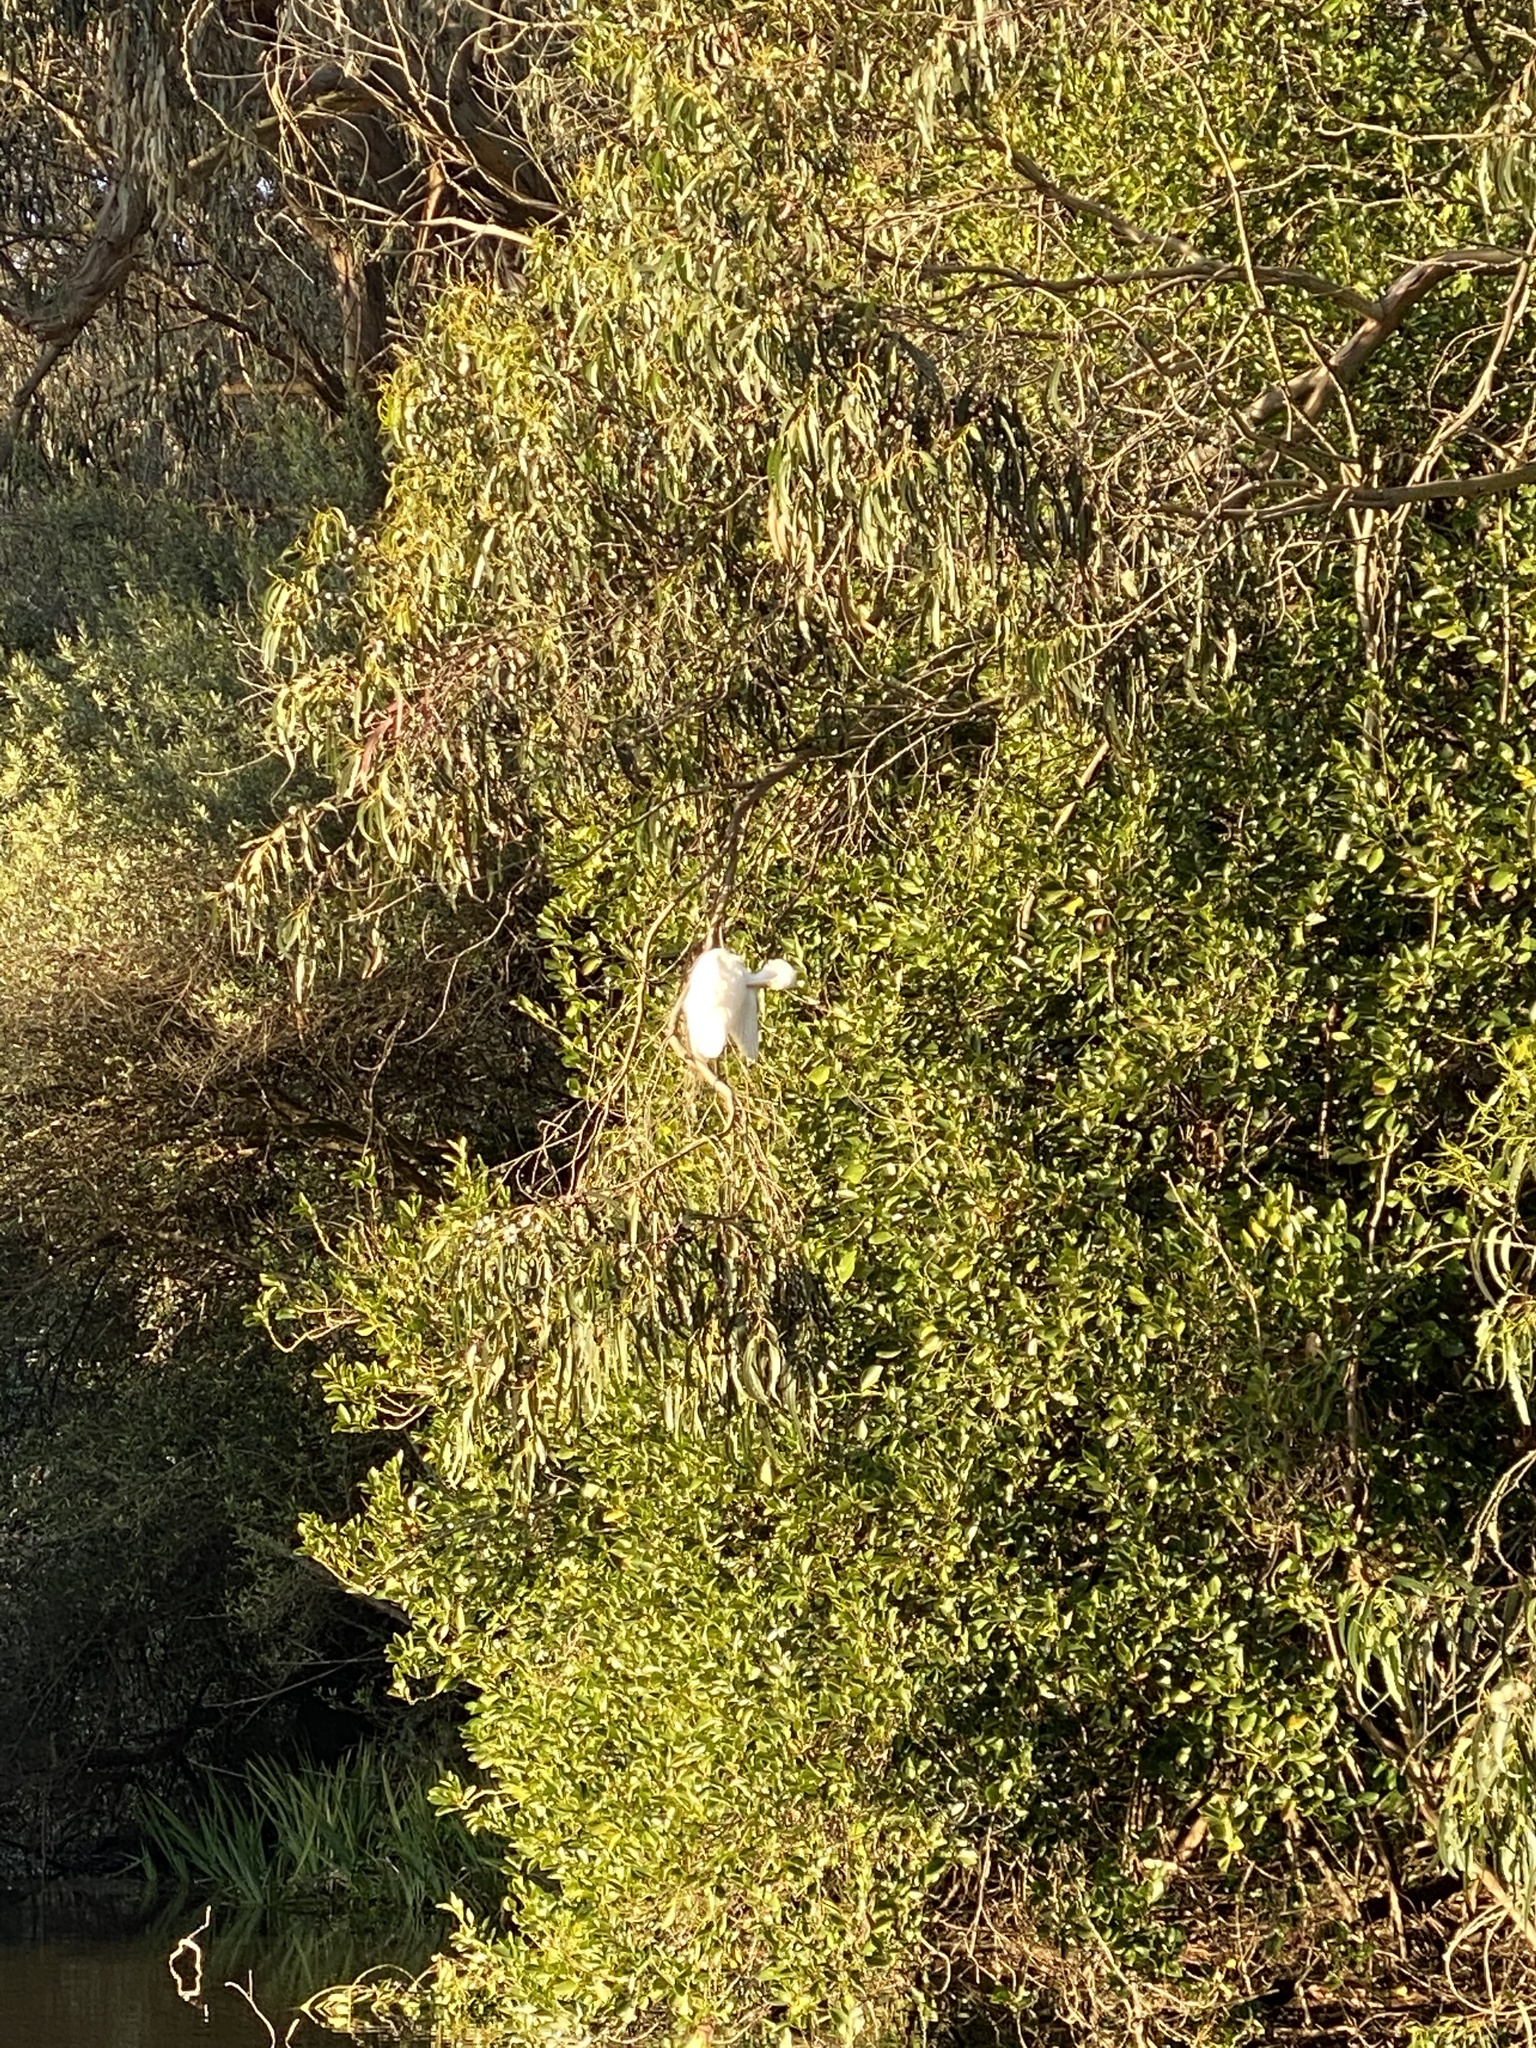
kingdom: Animalia
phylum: Chordata
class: Aves
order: Pelecaniformes
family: Ardeidae
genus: Ardea
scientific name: Ardea herodias
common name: Great blue heron
